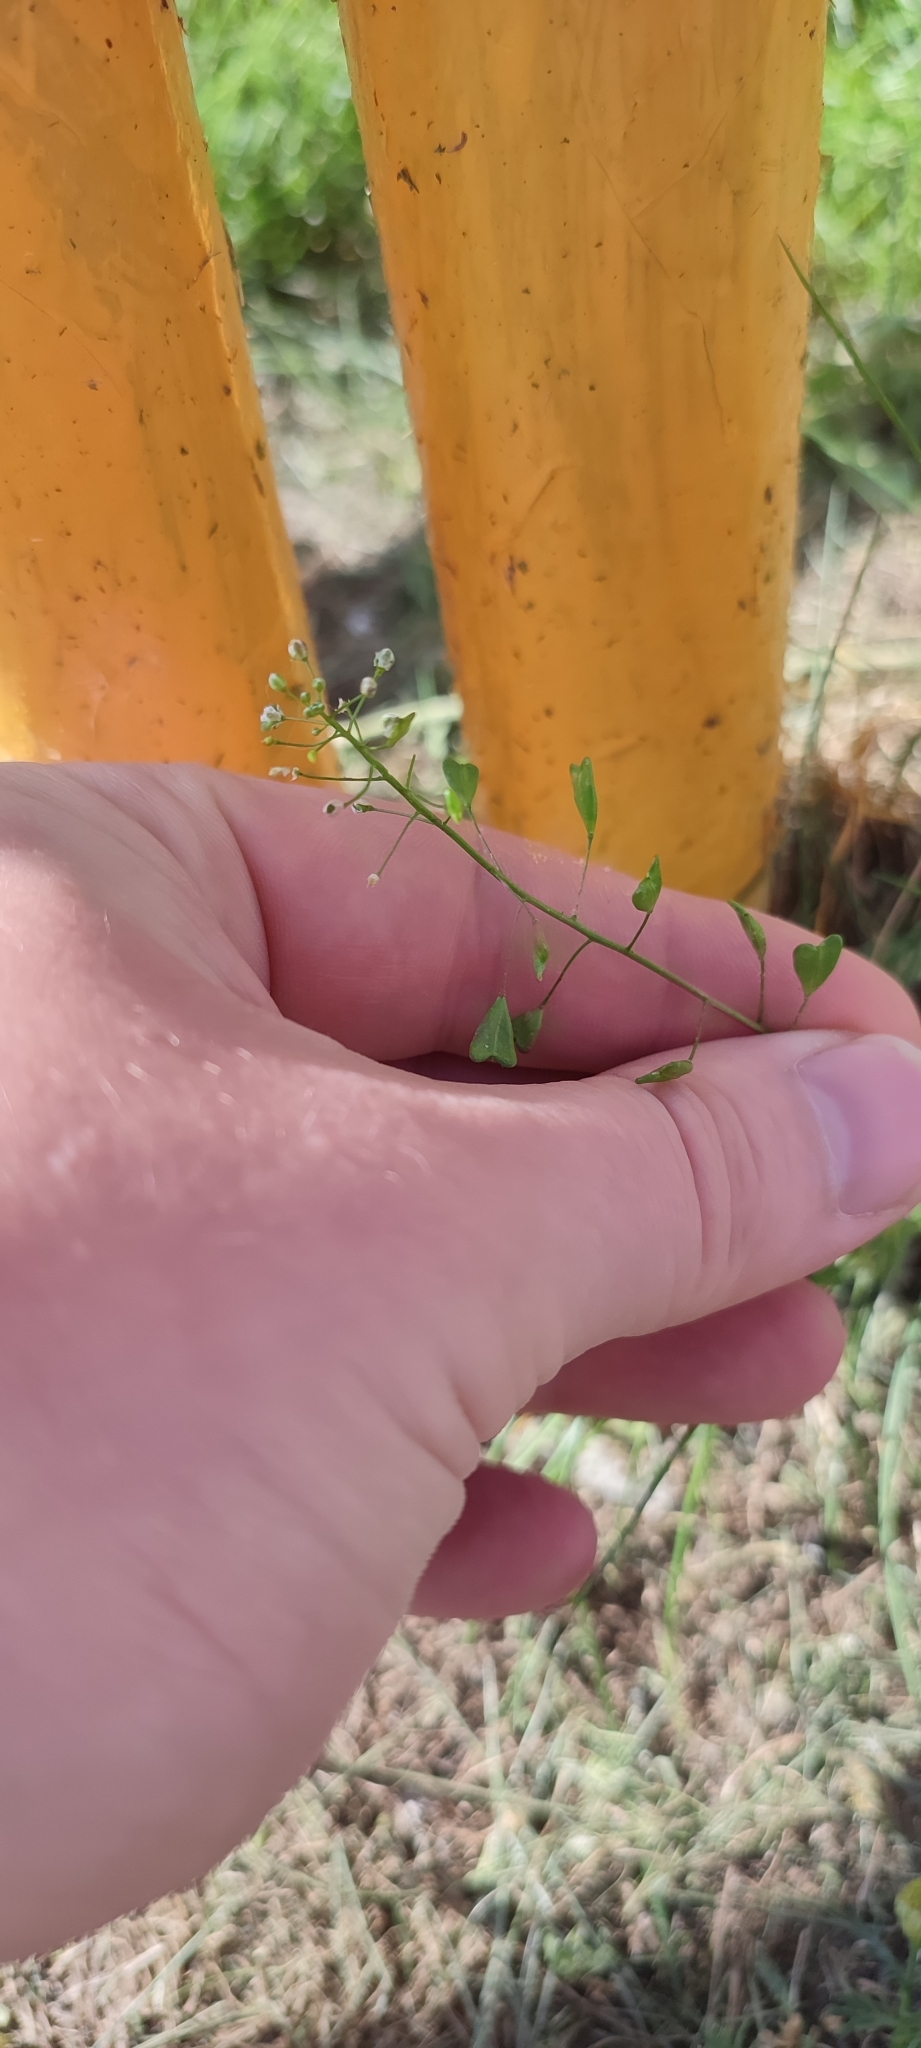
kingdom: Plantae
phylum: Tracheophyta
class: Magnoliopsida
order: Brassicales
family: Brassicaceae
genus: Capsella
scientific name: Capsella bursa-pastoris
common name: Shepherd's purse
